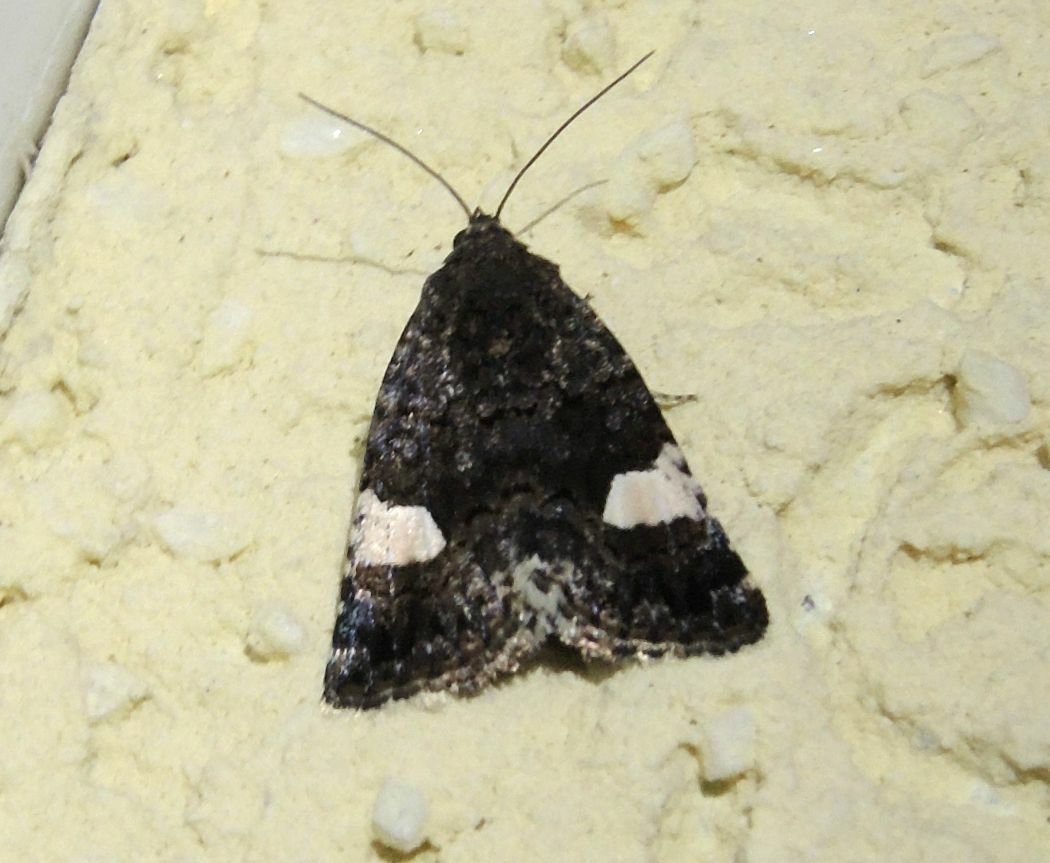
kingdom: Animalia
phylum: Arthropoda
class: Insecta
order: Lepidoptera
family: Erebidae
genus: Tyta
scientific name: Tyta luctuosa
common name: Four-spotted
